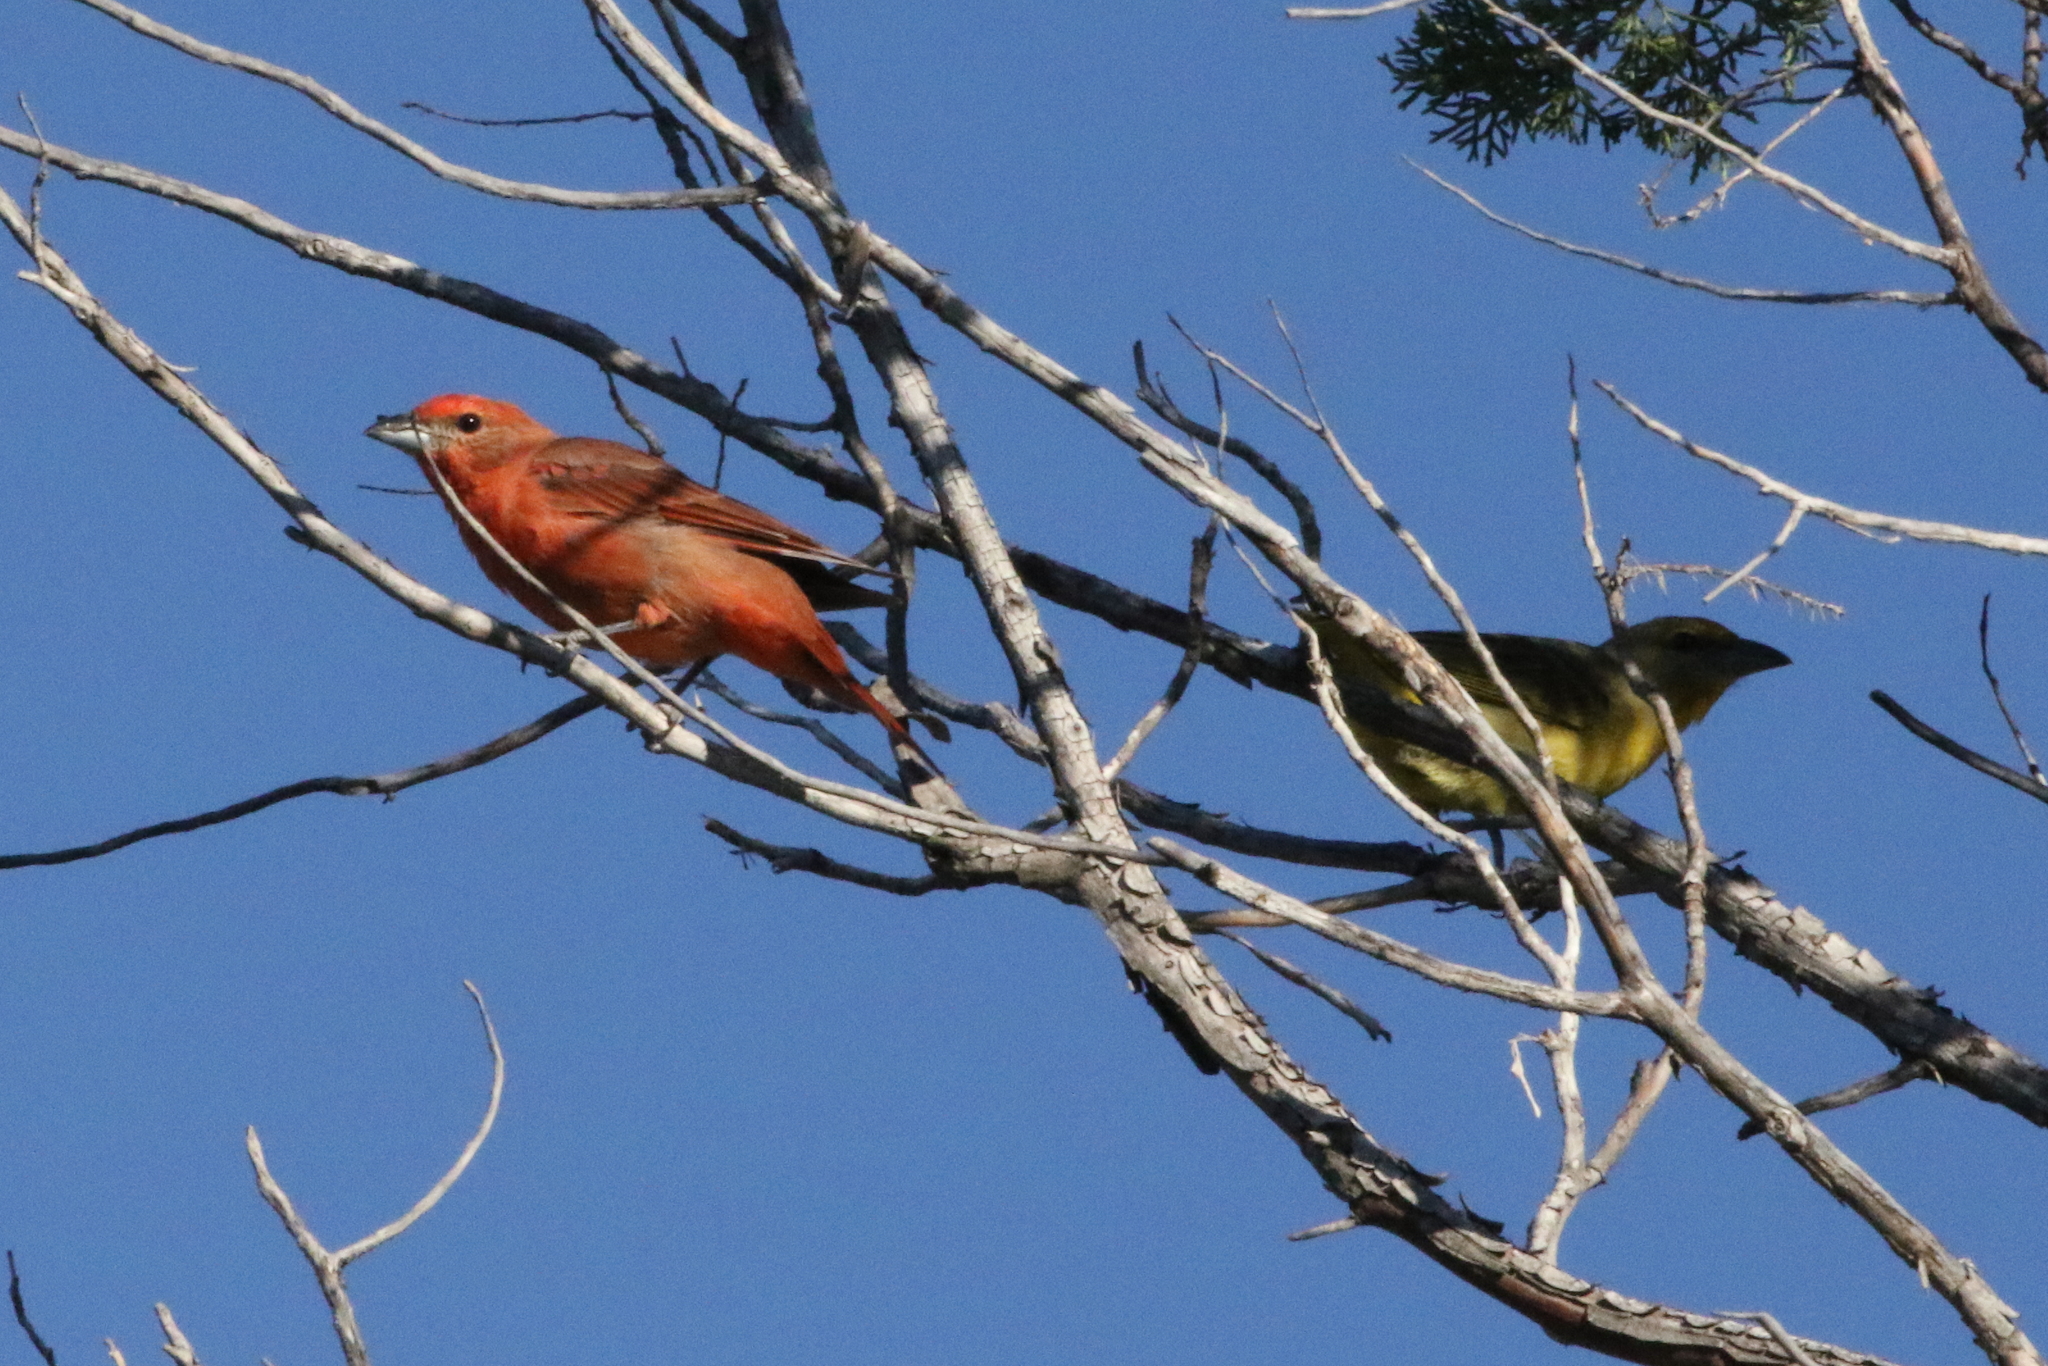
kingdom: Animalia
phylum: Chordata
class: Aves
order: Passeriformes
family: Cardinalidae
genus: Piranga
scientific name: Piranga flava
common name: Red tanager
